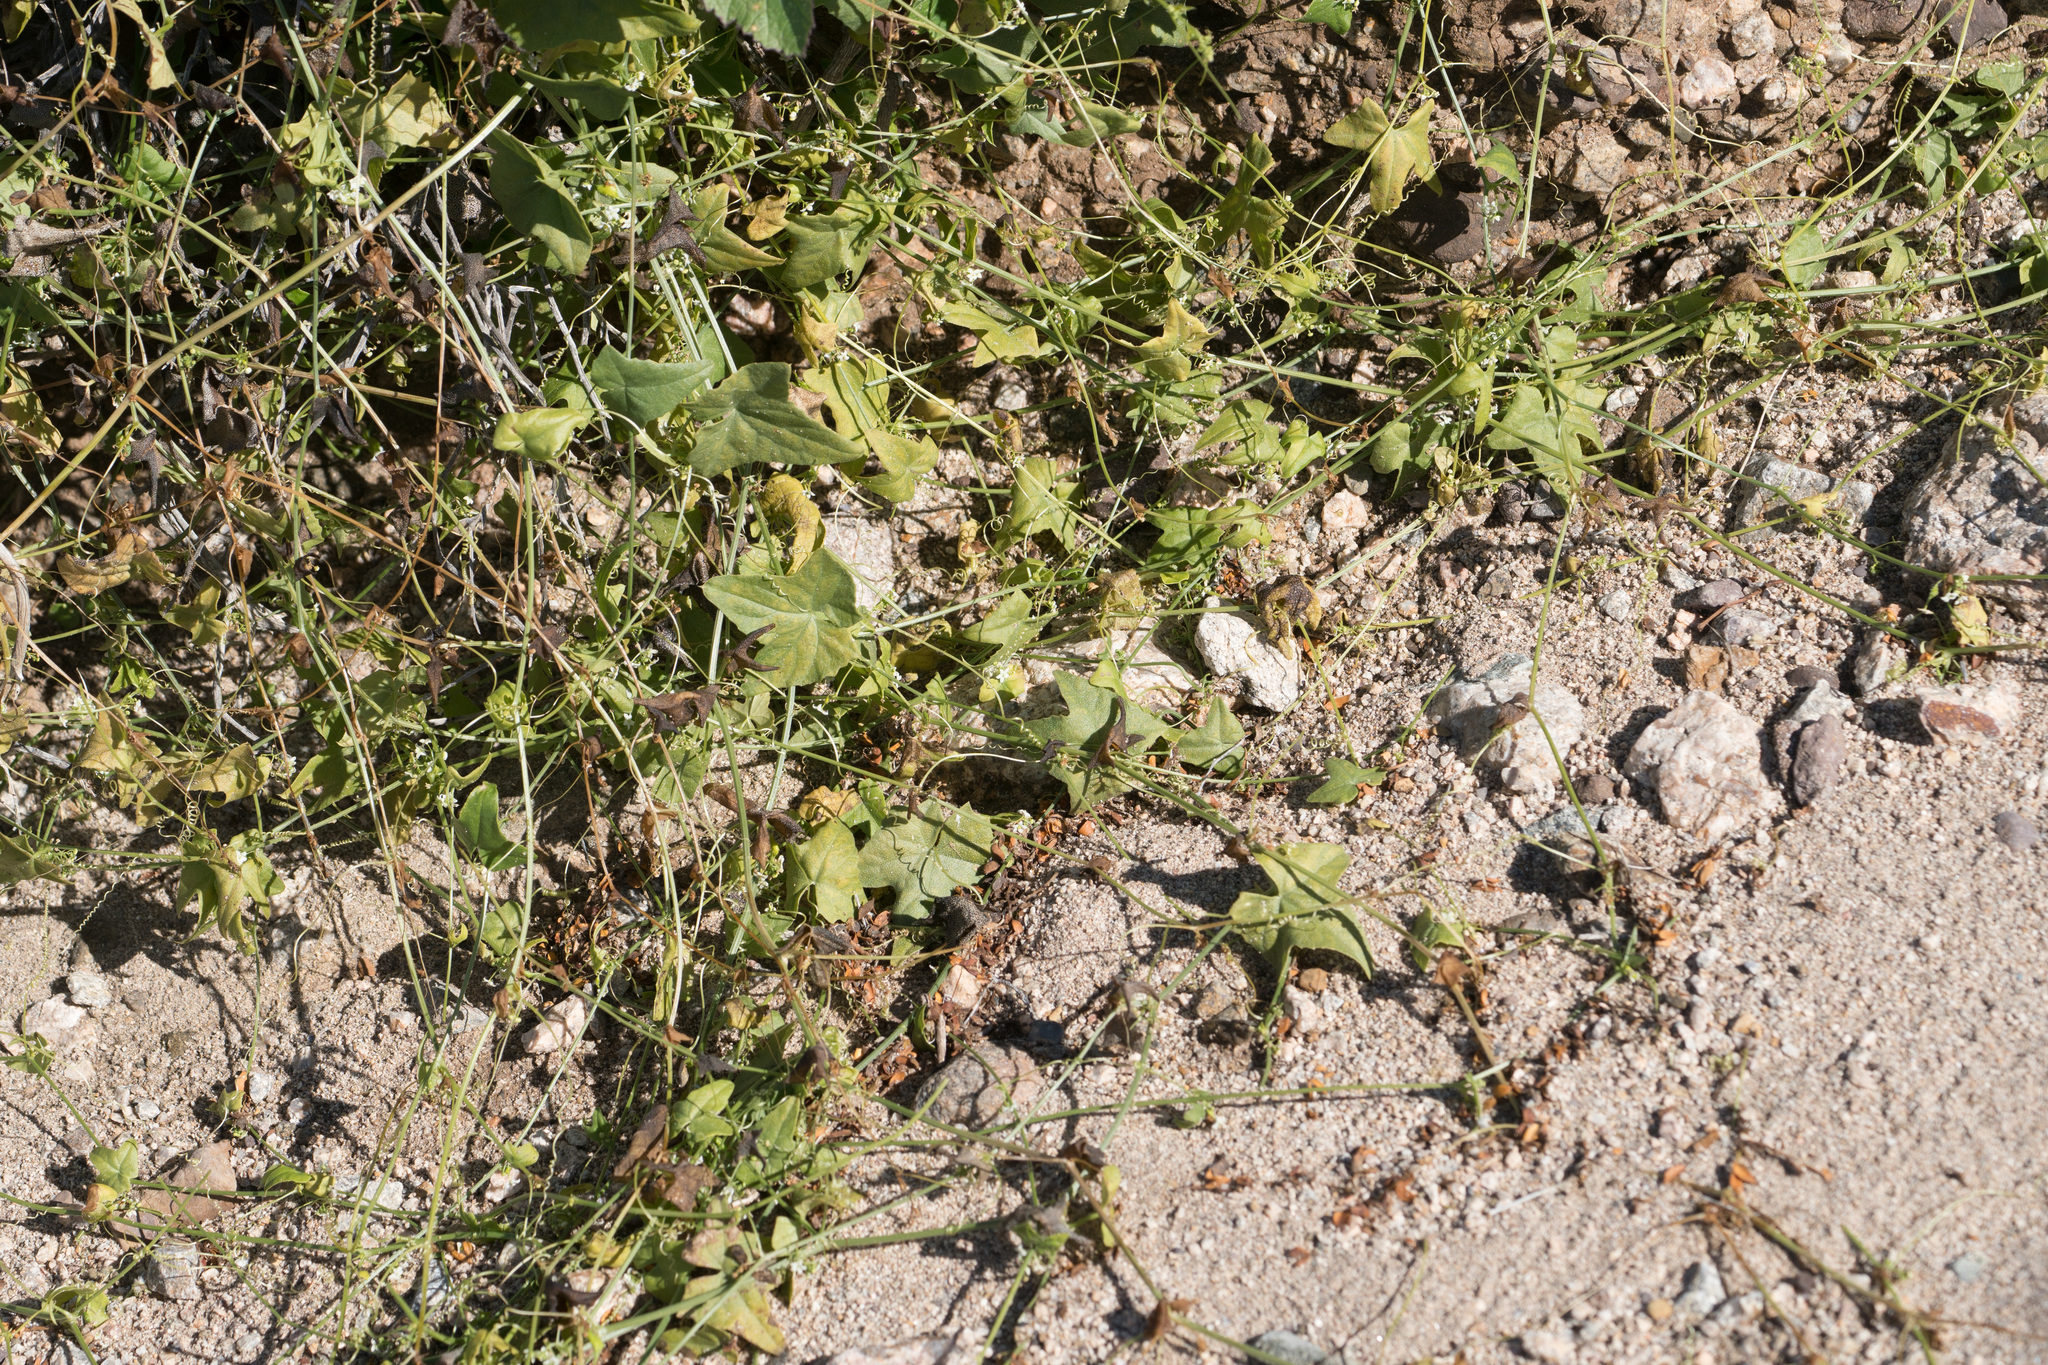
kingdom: Plantae
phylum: Tracheophyta
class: Magnoliopsida
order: Cucurbitales
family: Cucurbitaceae
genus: Echinopepon
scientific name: Echinopepon bigelovii
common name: Desert starvine
